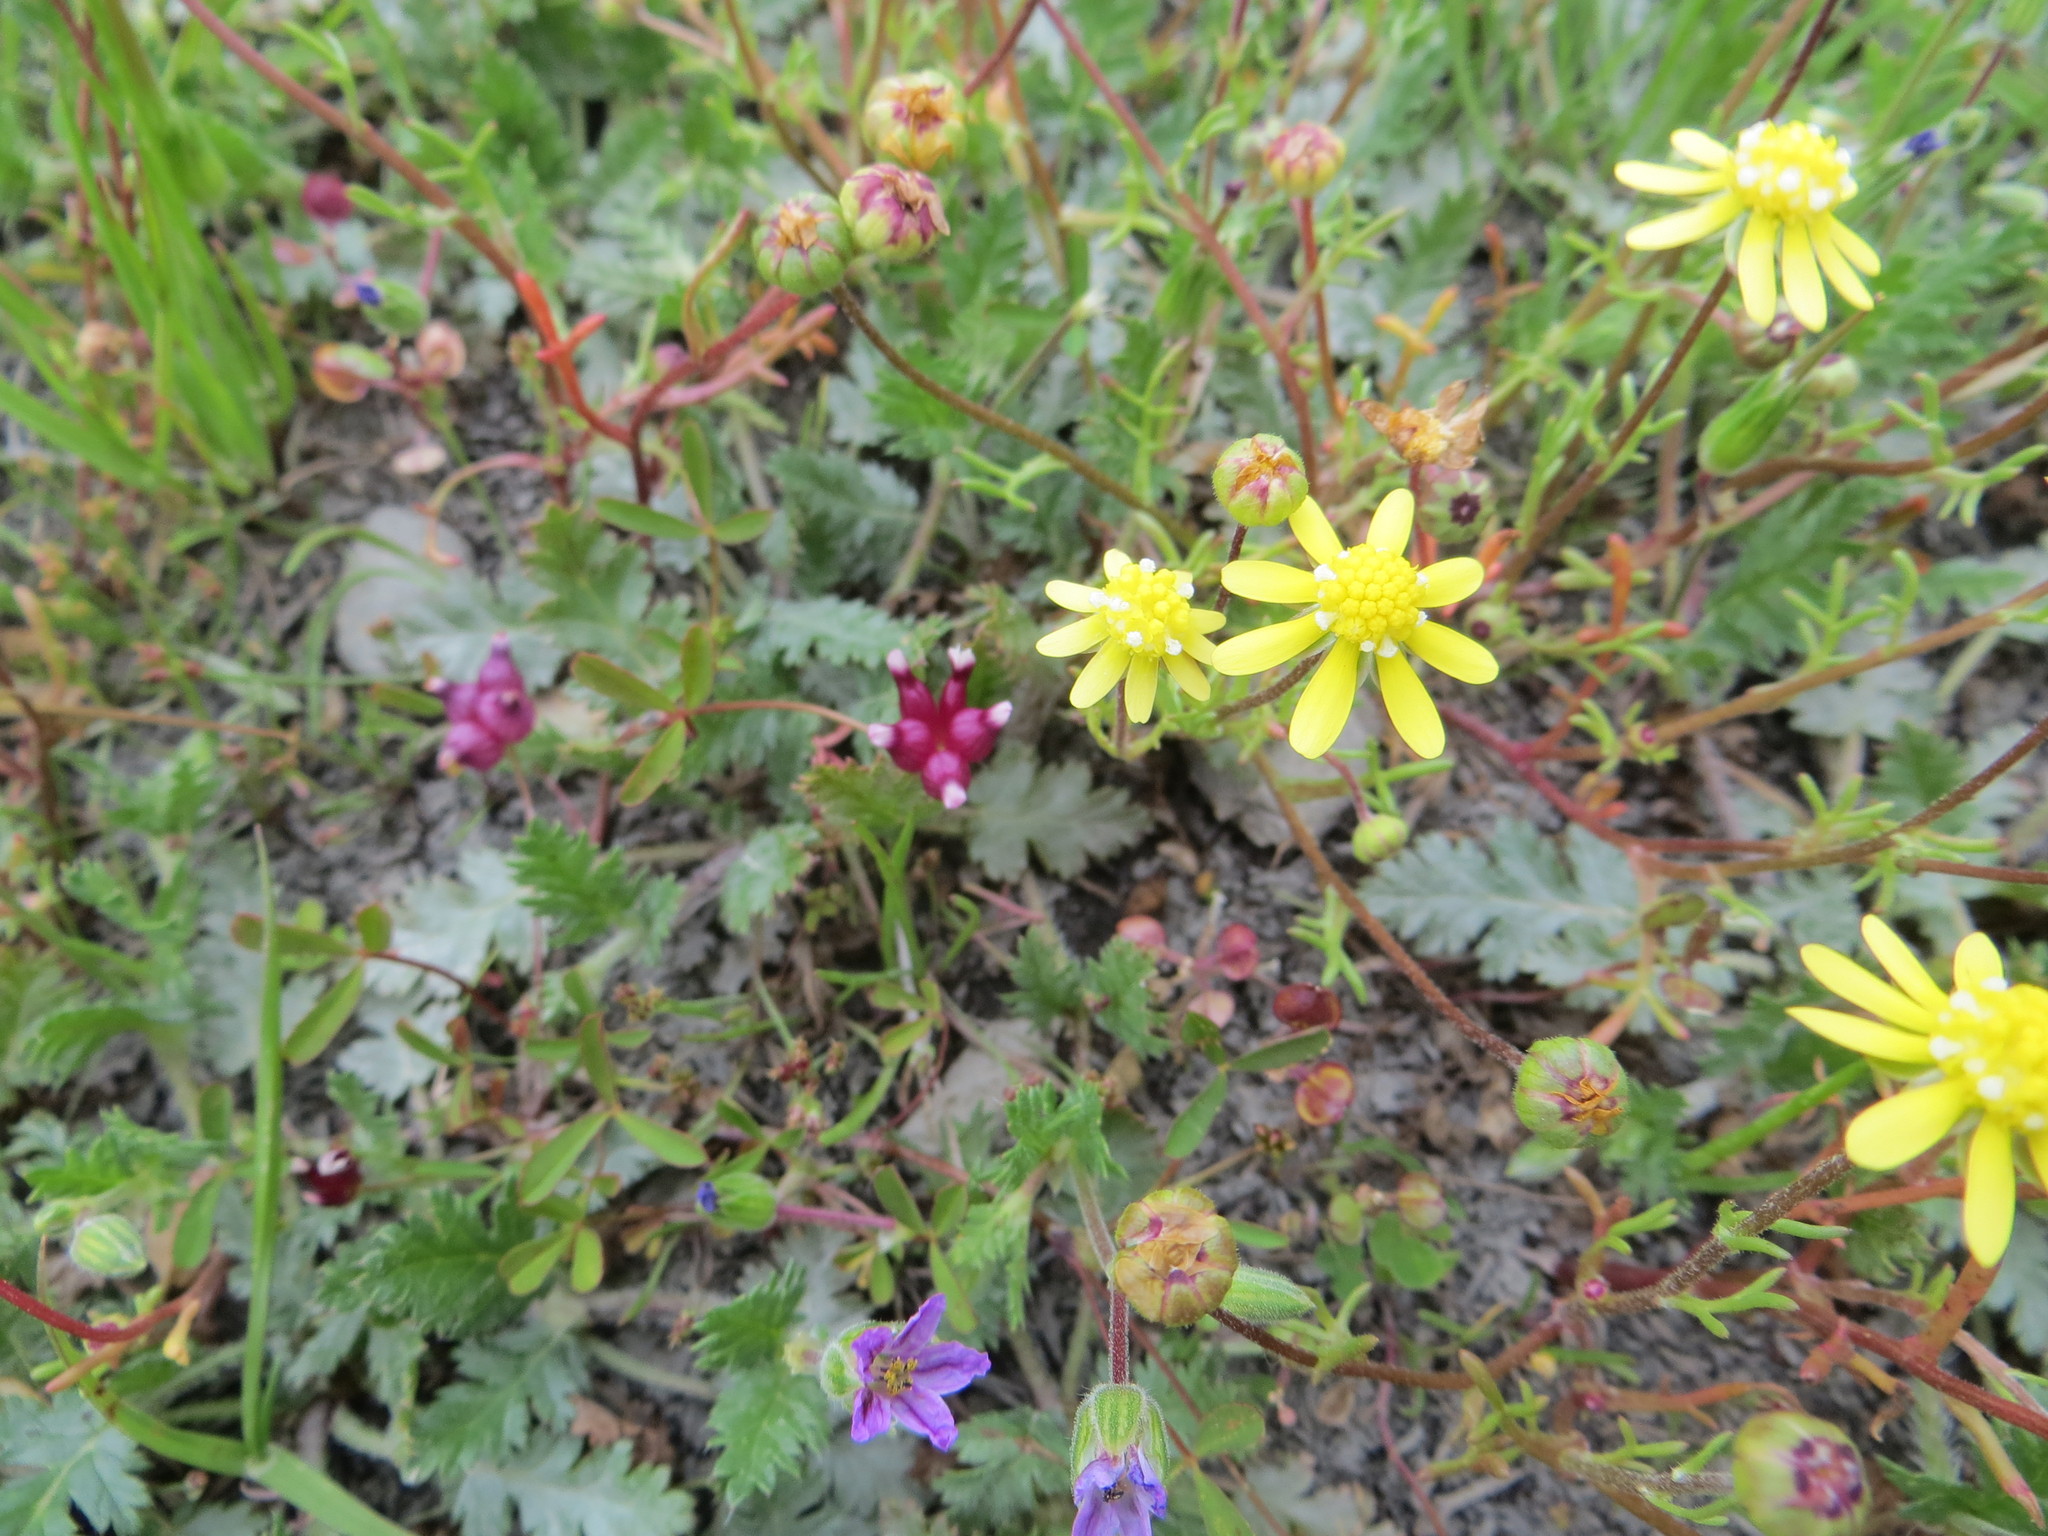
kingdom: Plantae
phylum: Tracheophyta
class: Magnoliopsida
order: Fabales
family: Fabaceae
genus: Trifolium
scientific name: Trifolium depauperatum
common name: Poverty clover
